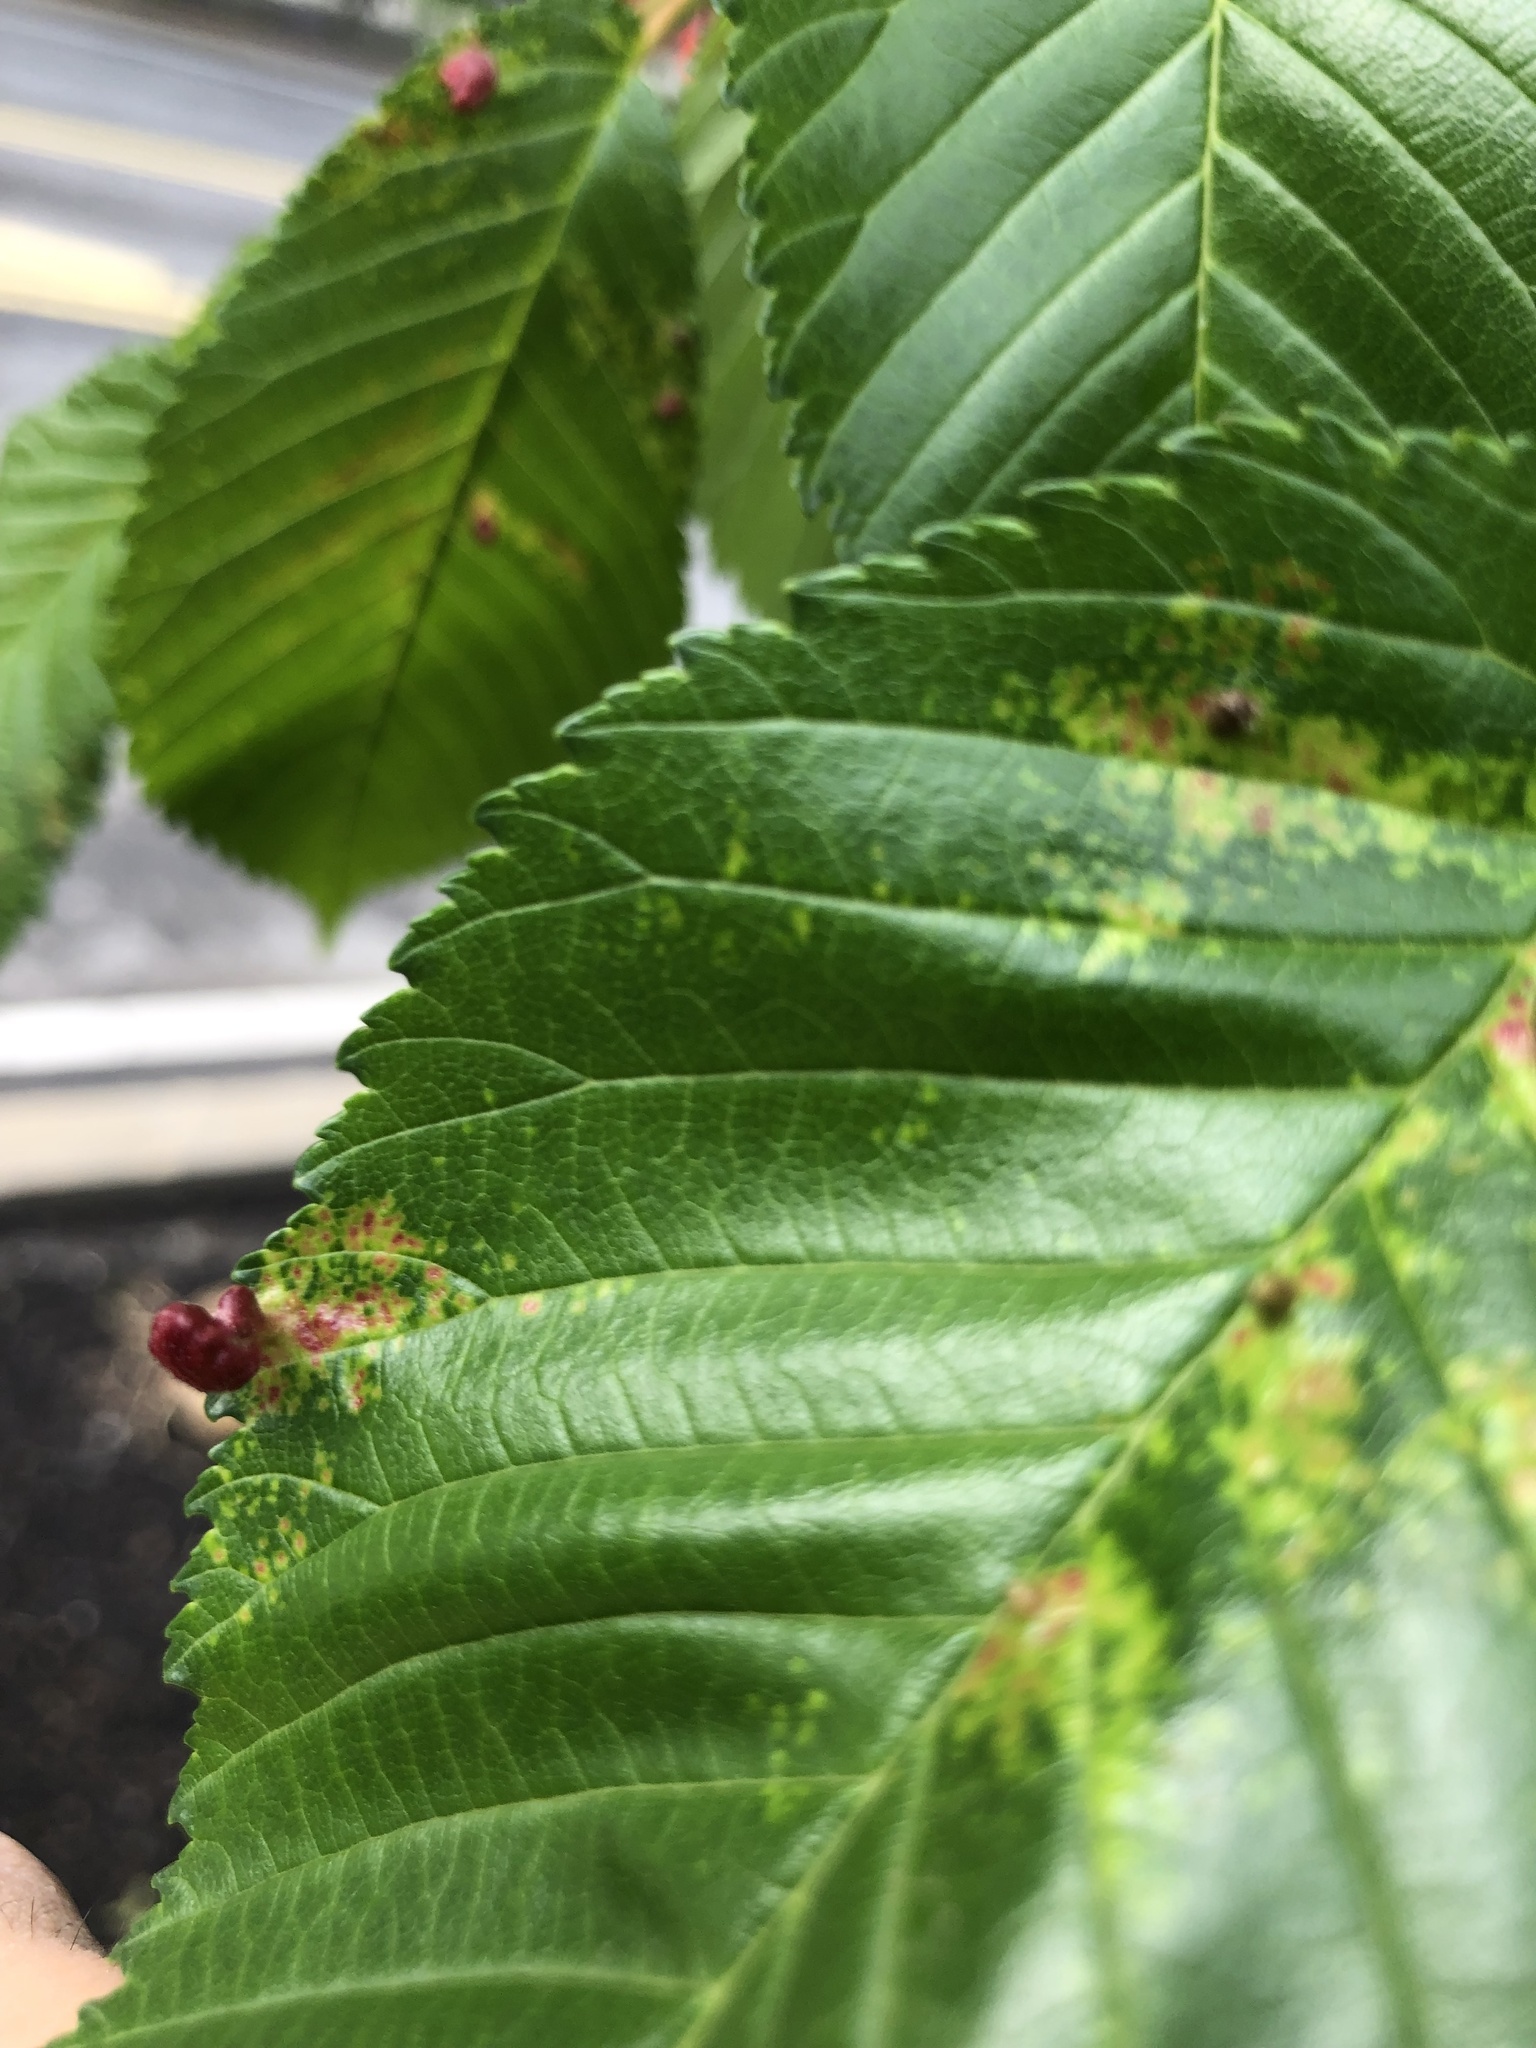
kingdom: Animalia
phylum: Arthropoda
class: Insecta
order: Hemiptera
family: Aphididae
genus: Tetraneura
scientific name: Tetraneura nigriabdominalis
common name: Aphid
